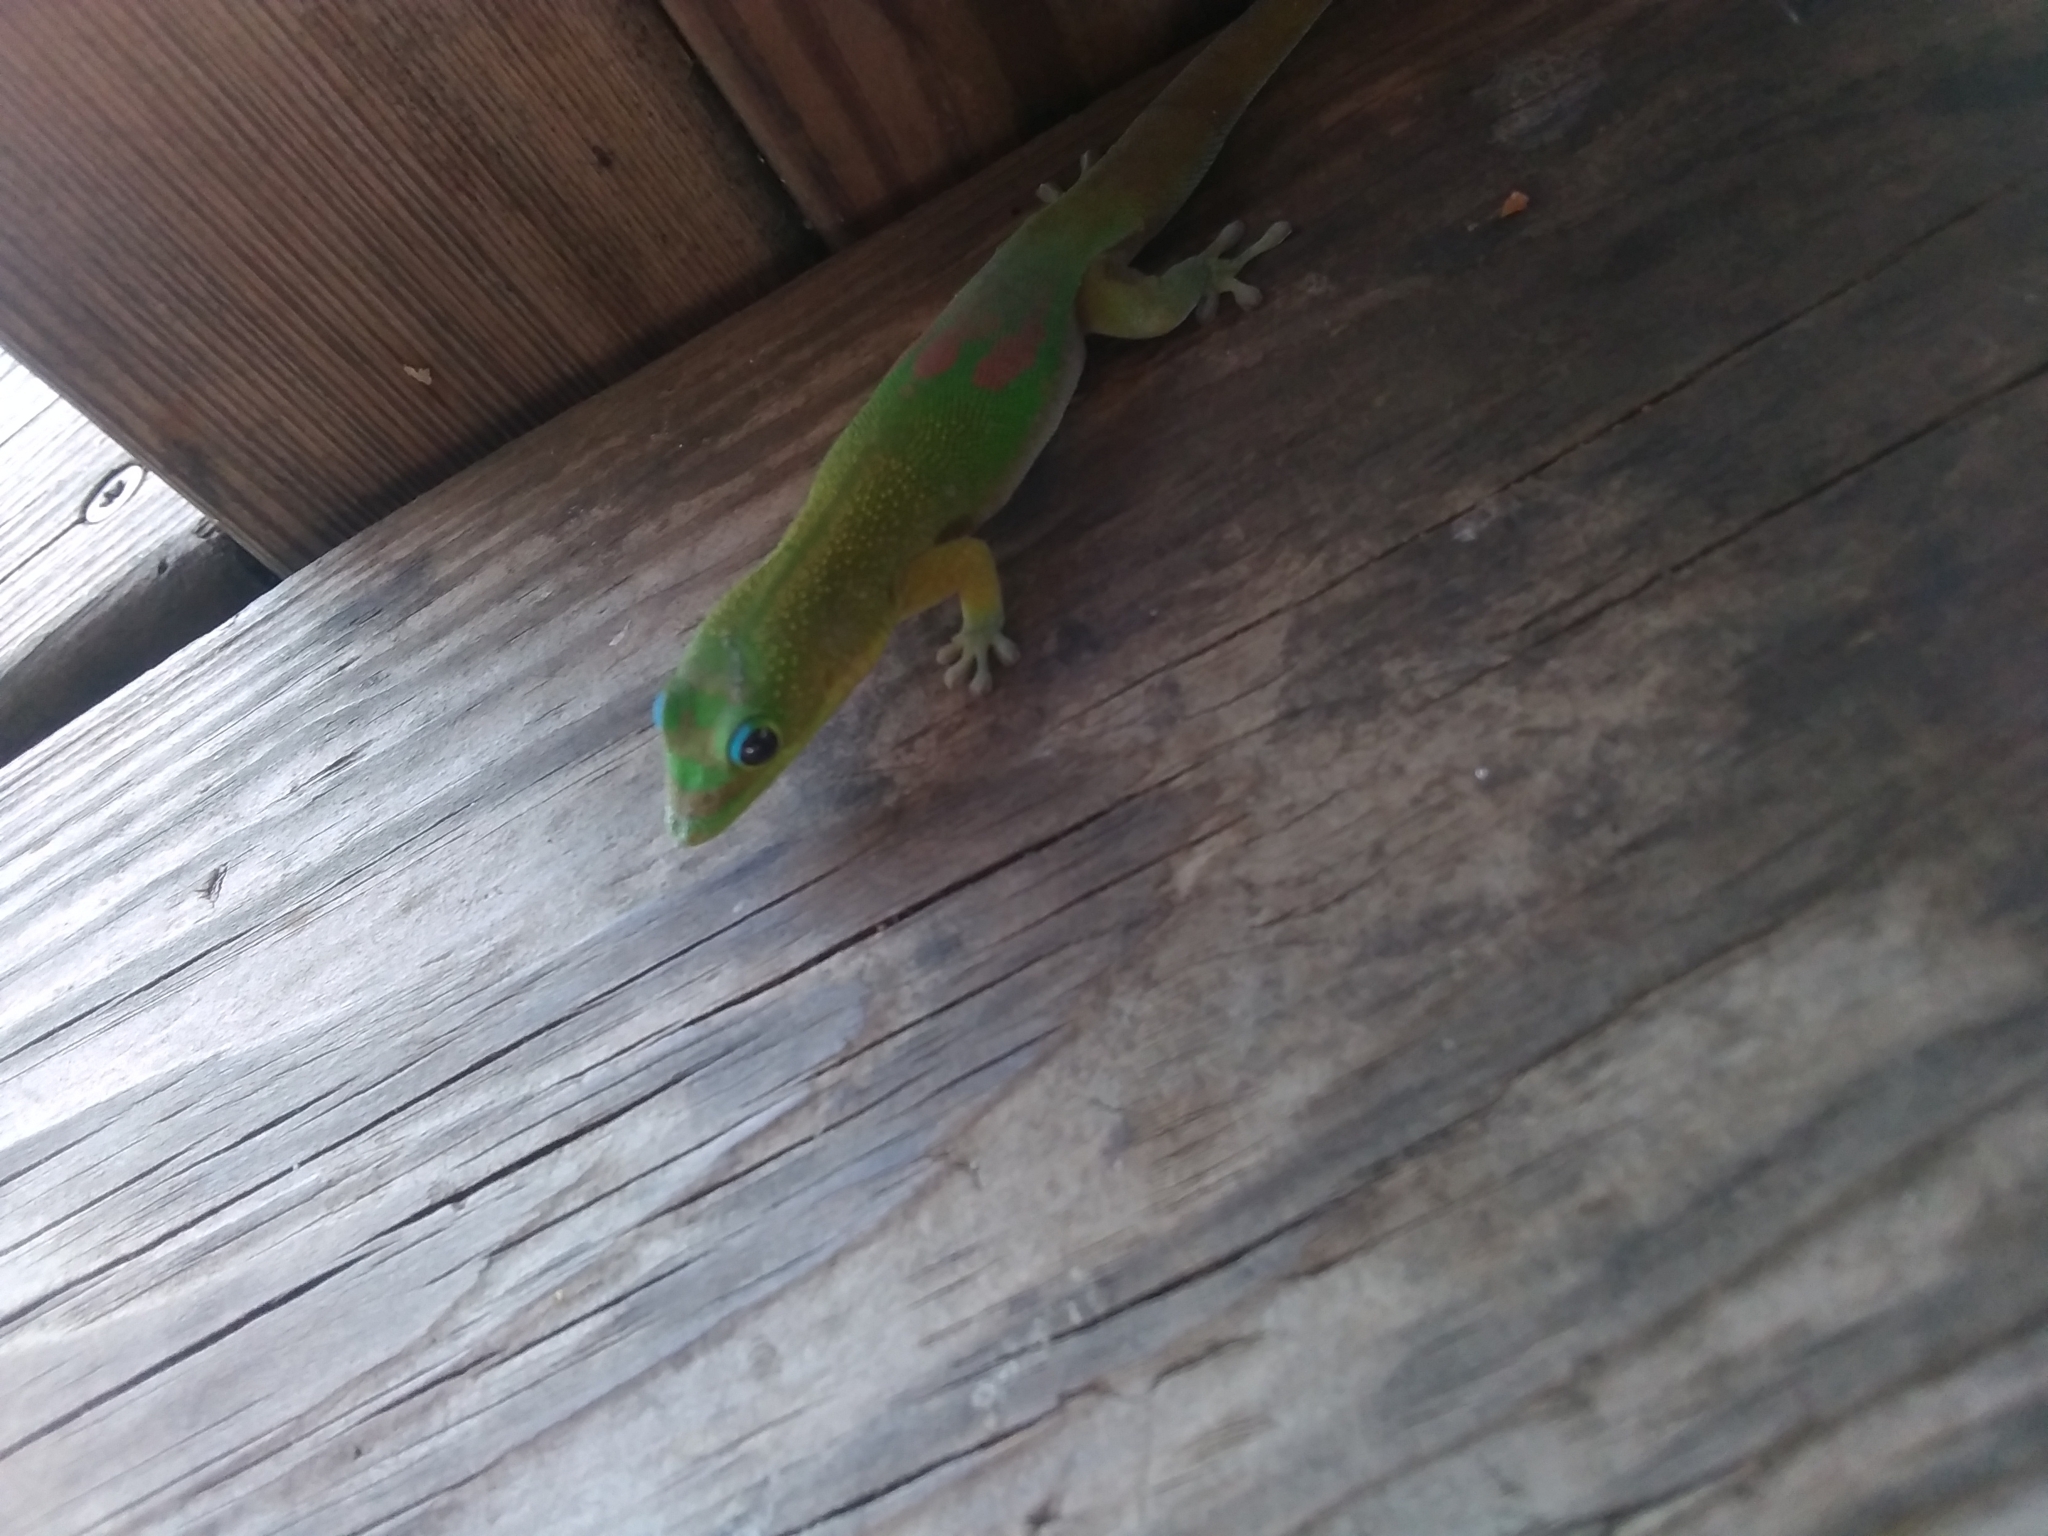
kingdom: Animalia
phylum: Chordata
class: Squamata
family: Gekkonidae
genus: Phelsuma
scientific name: Phelsuma laticauda
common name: Gold dust day gecko
